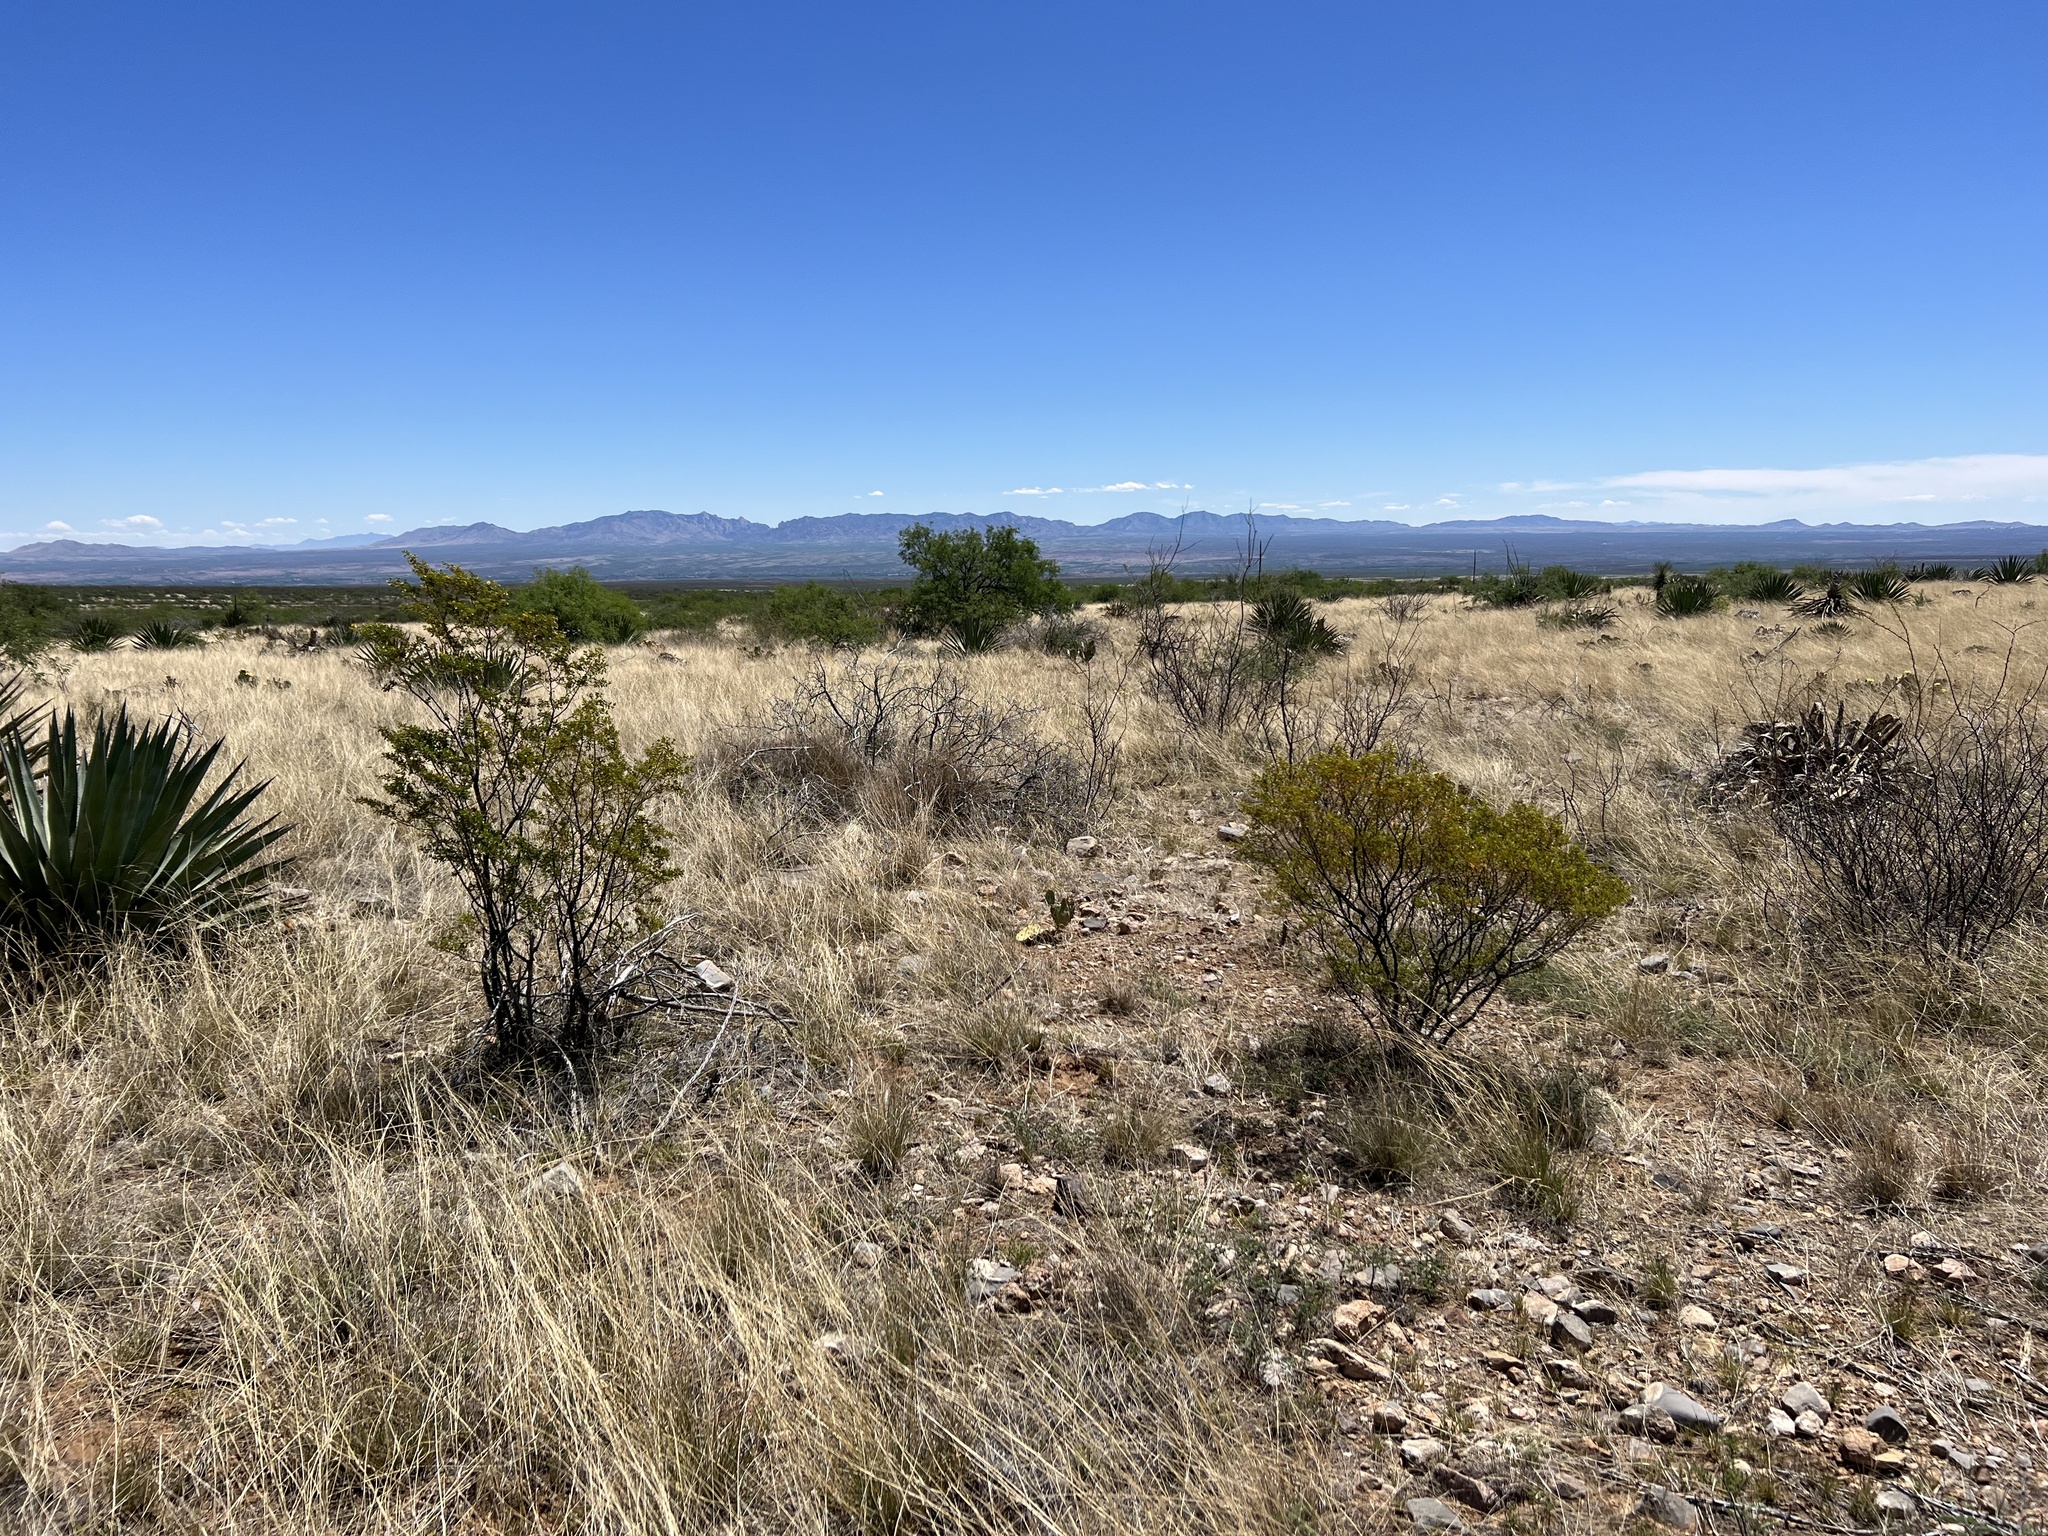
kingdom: Plantae
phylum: Tracheophyta
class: Magnoliopsida
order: Zygophyllales
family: Zygophyllaceae
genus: Larrea
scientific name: Larrea tridentata
